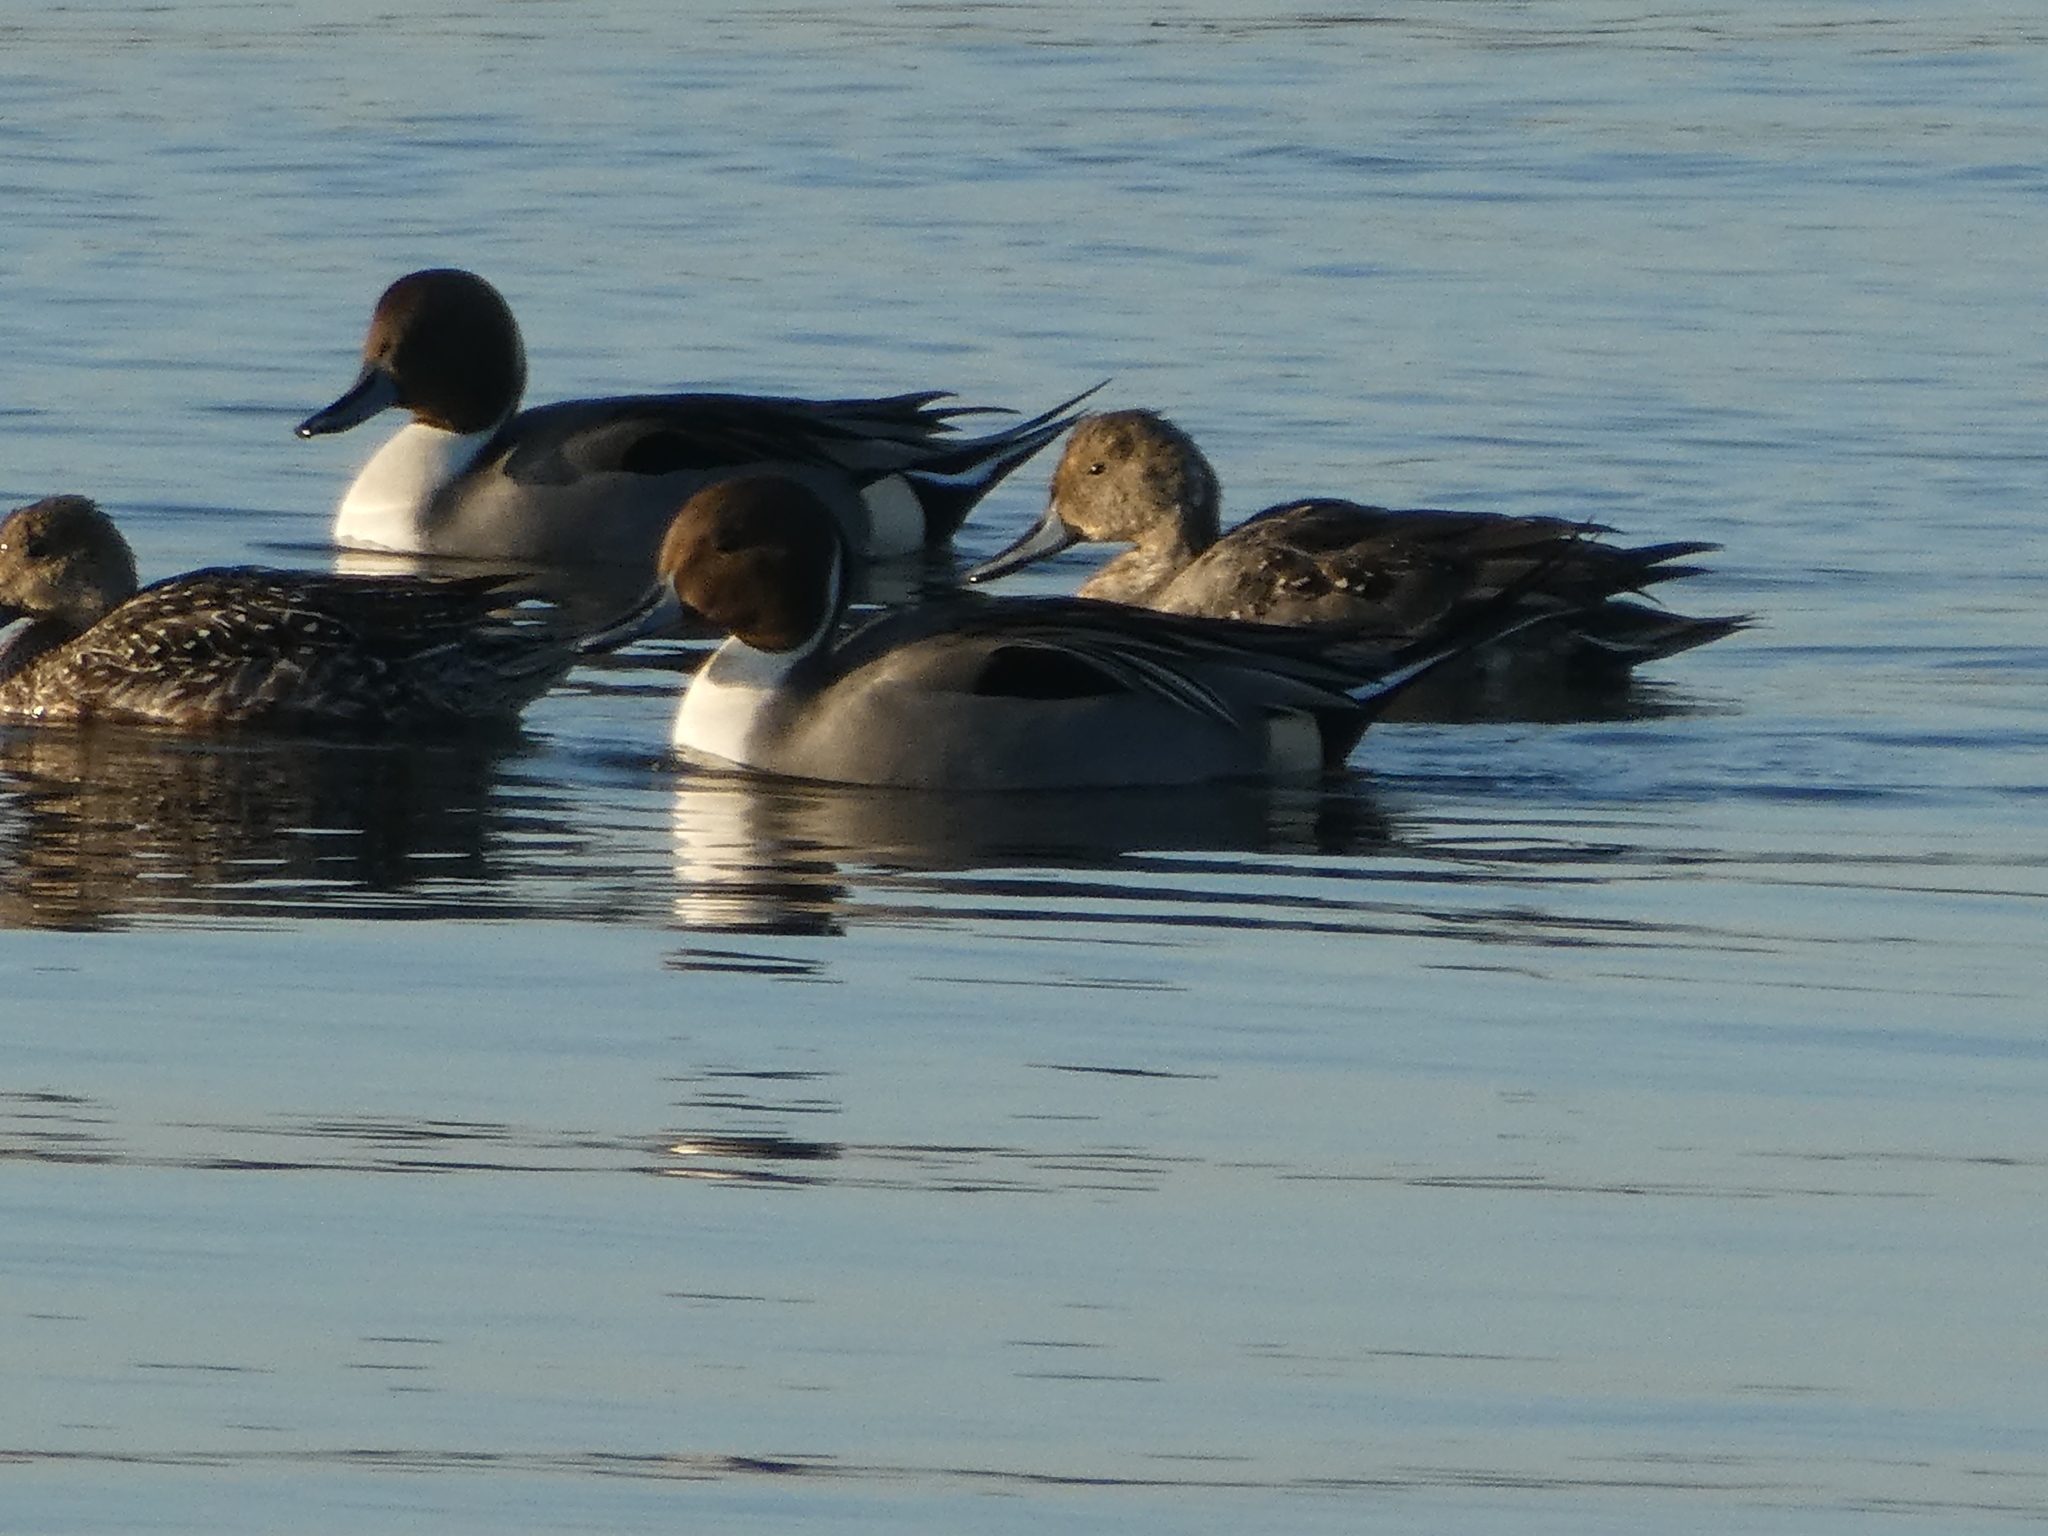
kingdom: Animalia
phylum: Chordata
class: Aves
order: Anseriformes
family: Anatidae
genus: Anas
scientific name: Anas acuta
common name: Northern pintail
